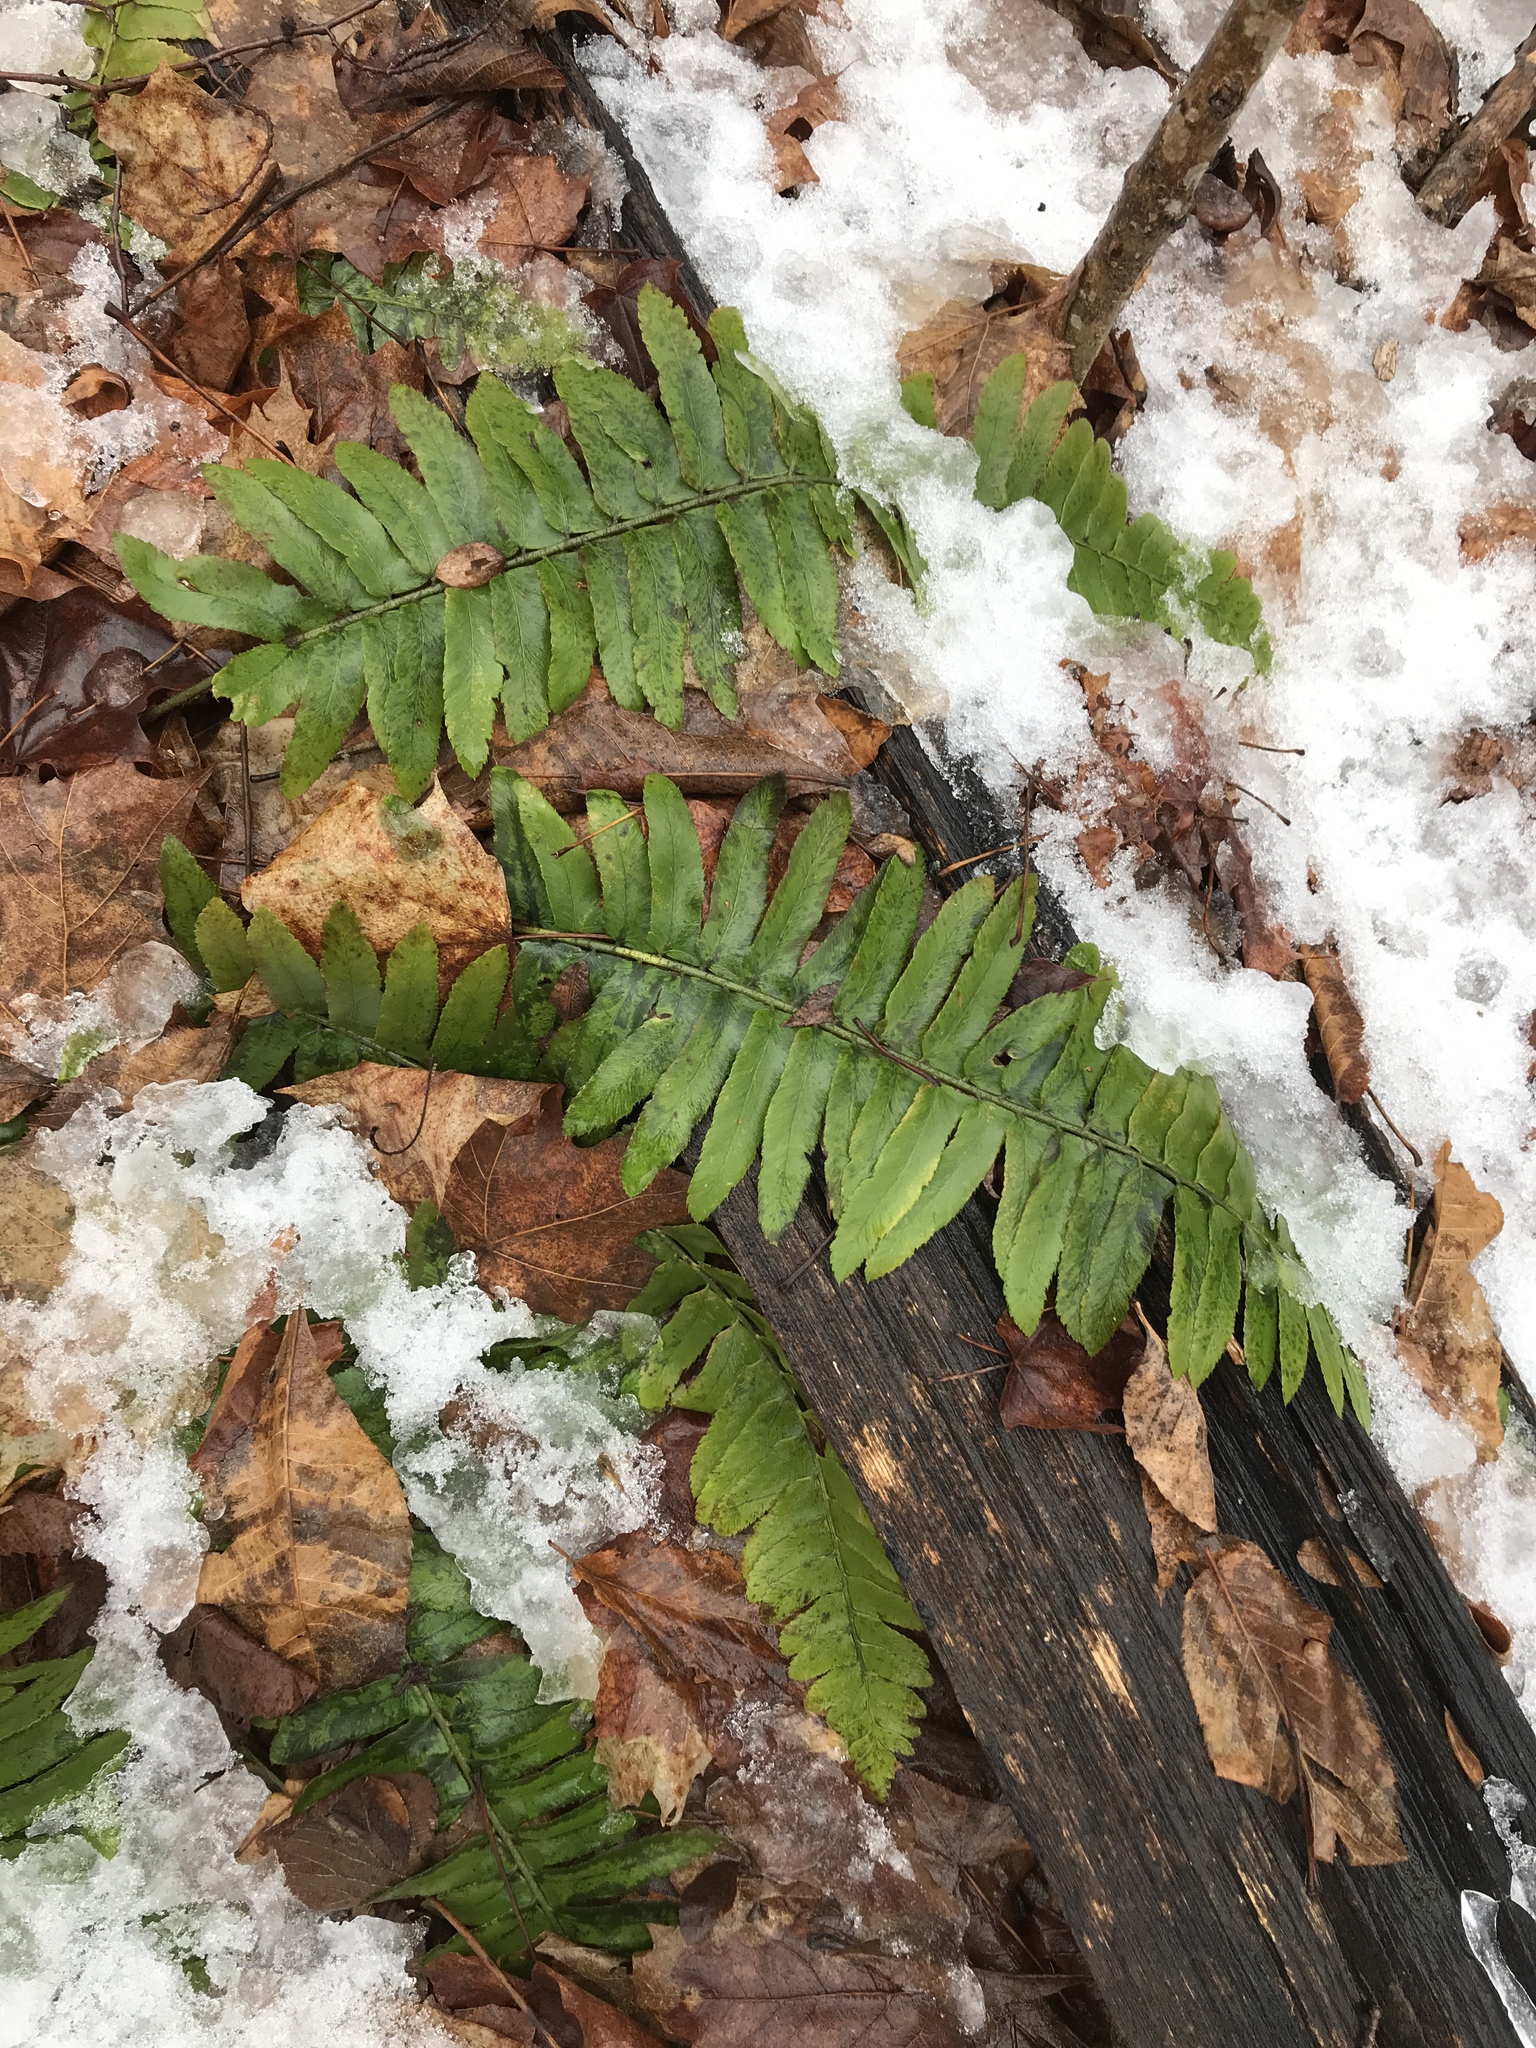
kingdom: Plantae
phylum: Tracheophyta
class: Polypodiopsida
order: Polypodiales
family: Dryopteridaceae
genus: Polystichum
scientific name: Polystichum acrostichoides
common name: Christmas fern
